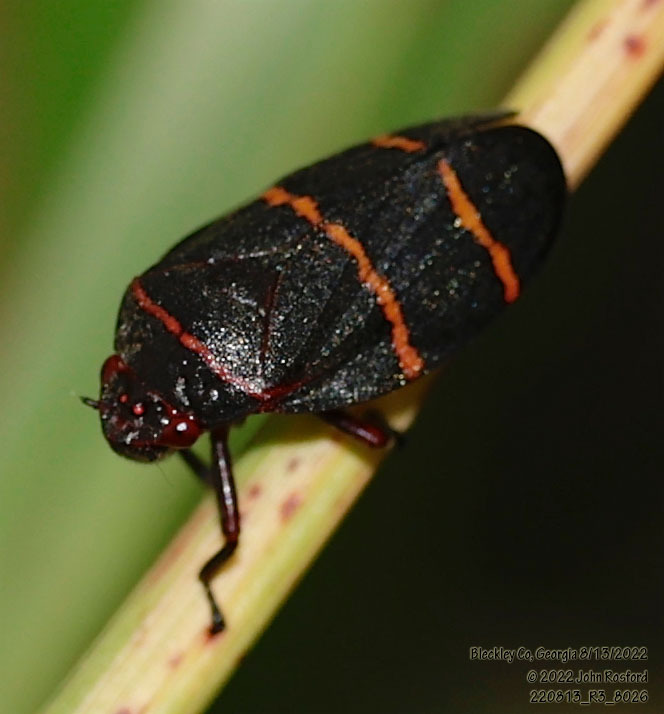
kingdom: Animalia
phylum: Arthropoda
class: Insecta
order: Hemiptera
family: Cercopidae
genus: Prosapia
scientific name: Prosapia bicincta
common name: Twolined spittlebug
